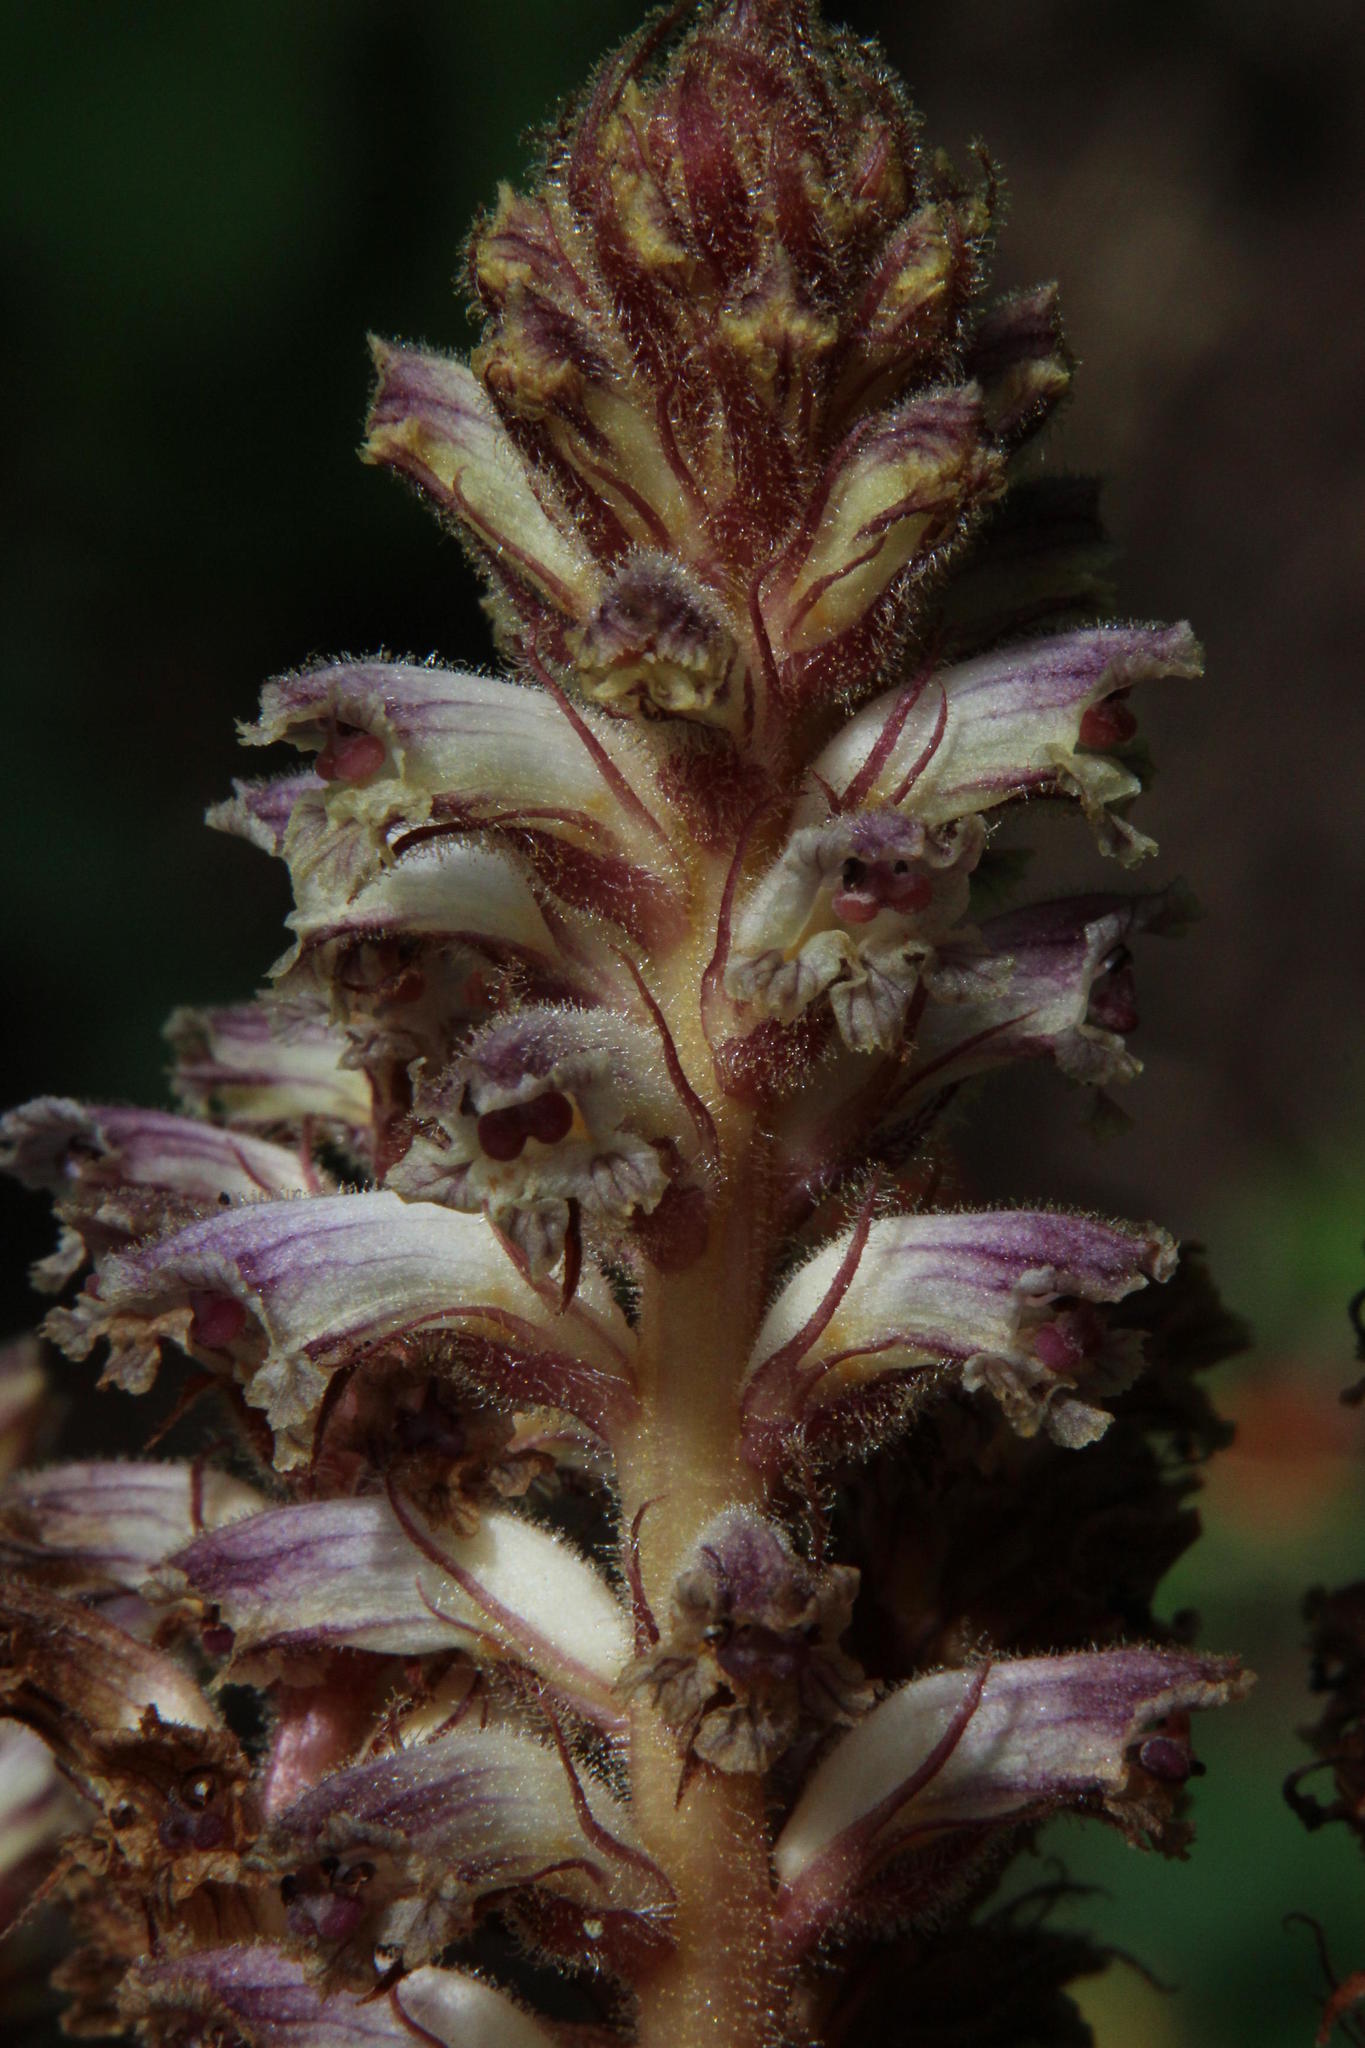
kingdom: Plantae
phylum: Tracheophyta
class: Magnoliopsida
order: Lamiales
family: Orobanchaceae
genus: Orobanche
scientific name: Orobanche minor
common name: Common broomrape
